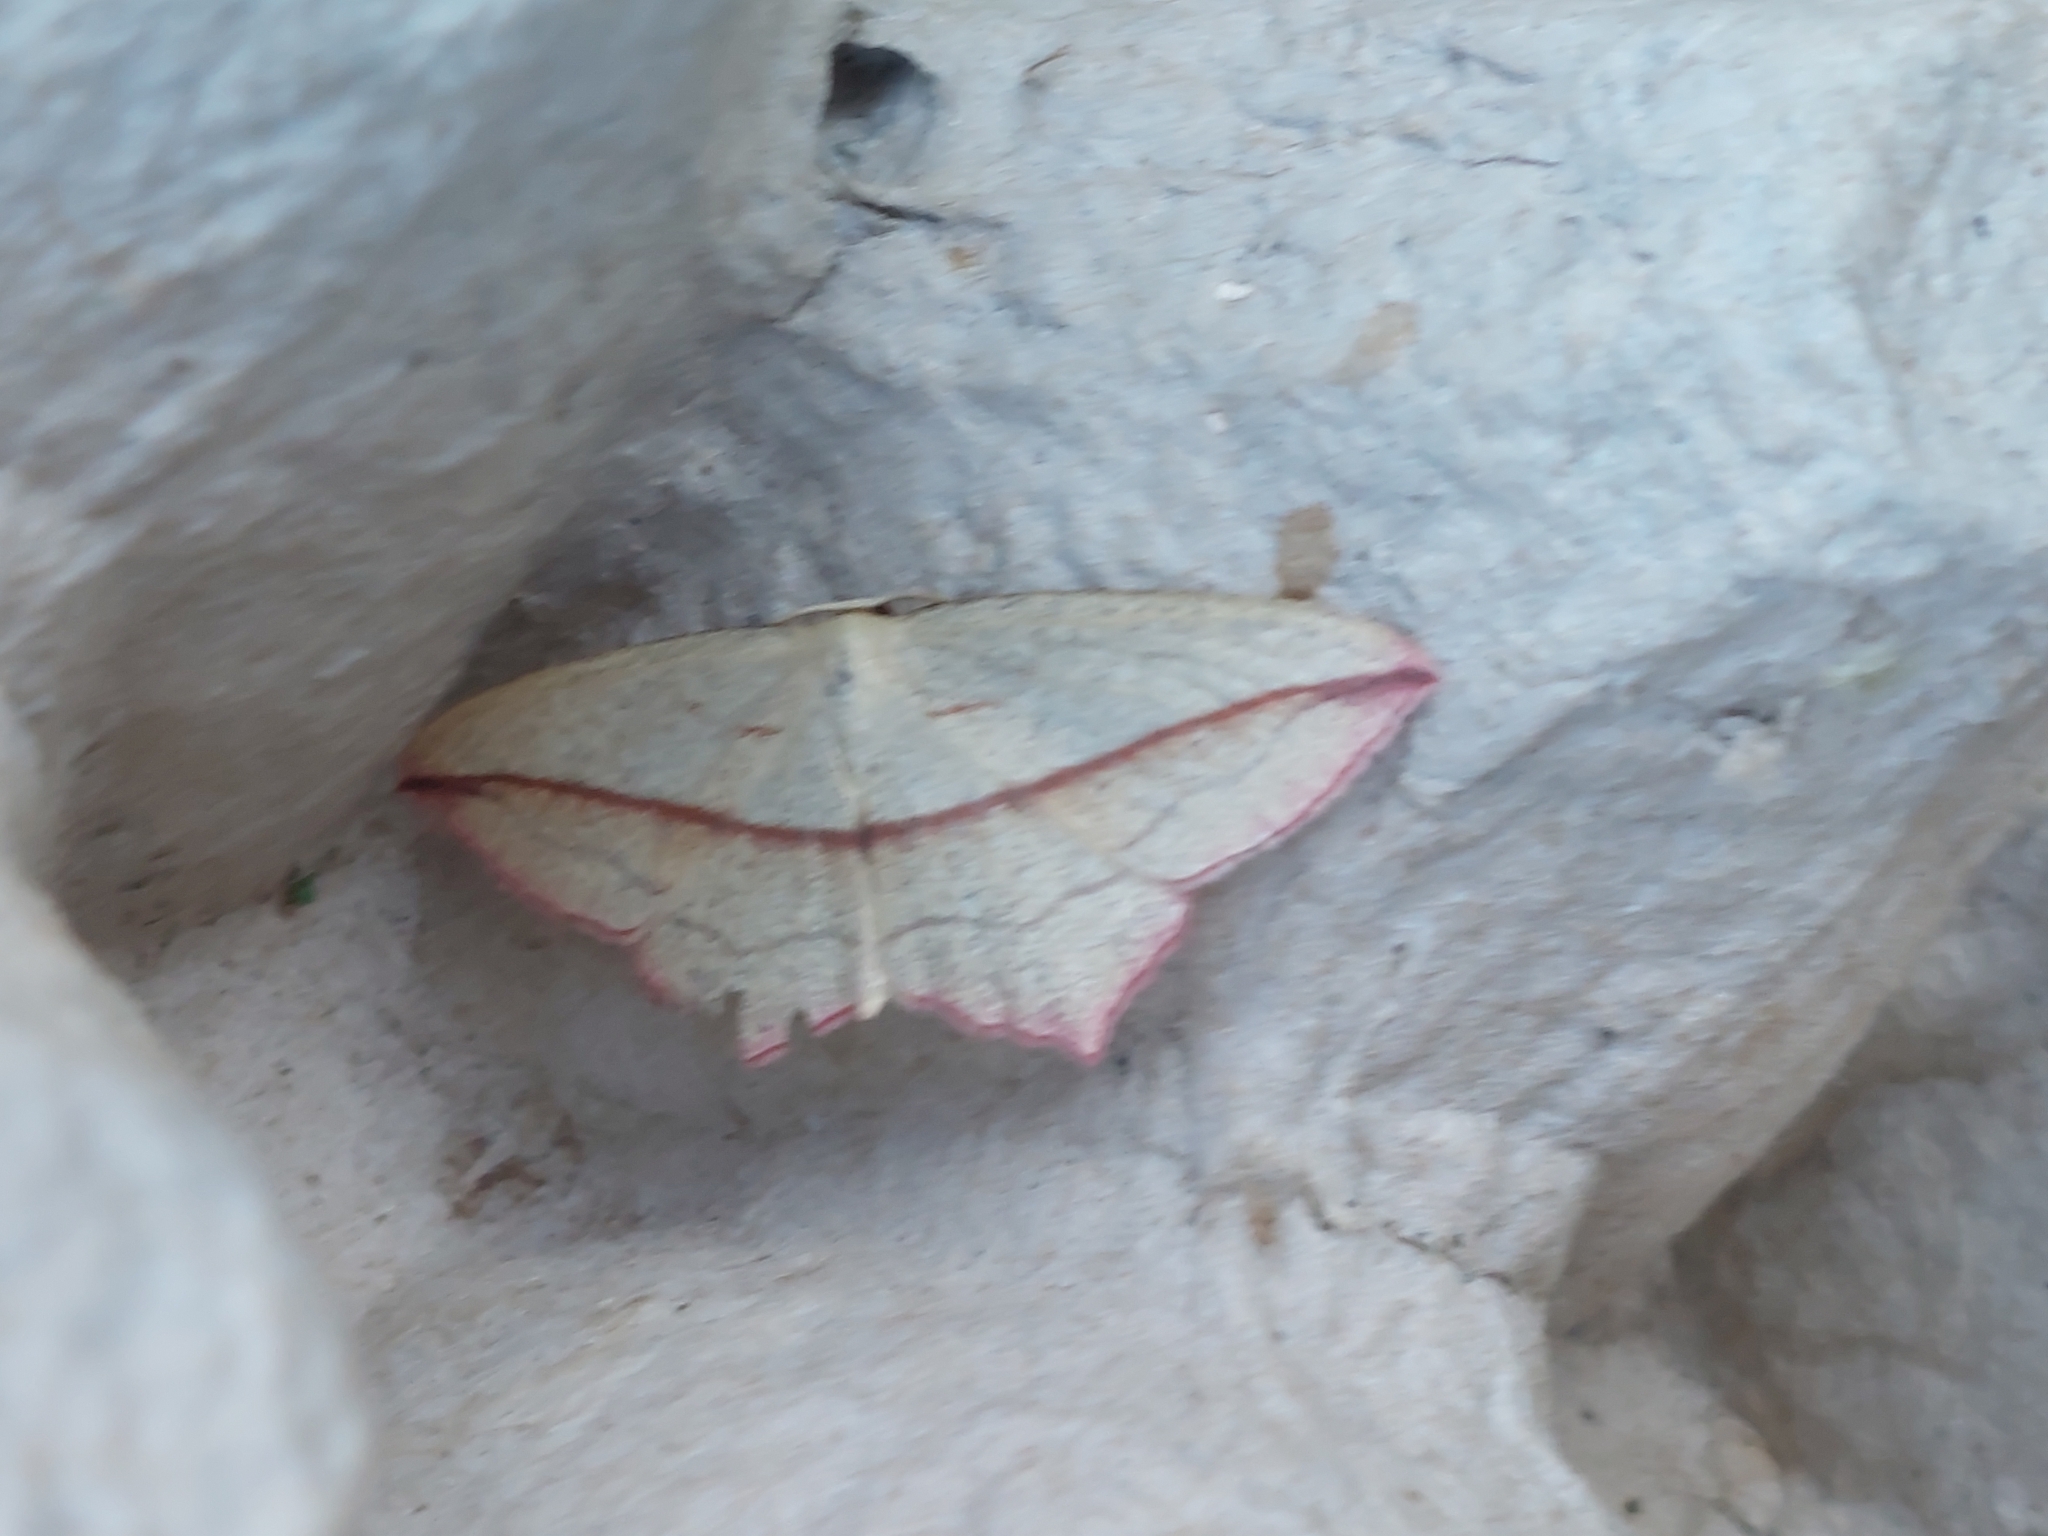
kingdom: Animalia
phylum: Arthropoda
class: Insecta
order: Lepidoptera
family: Geometridae
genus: Timandra
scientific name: Timandra comae
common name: Blood-vein
